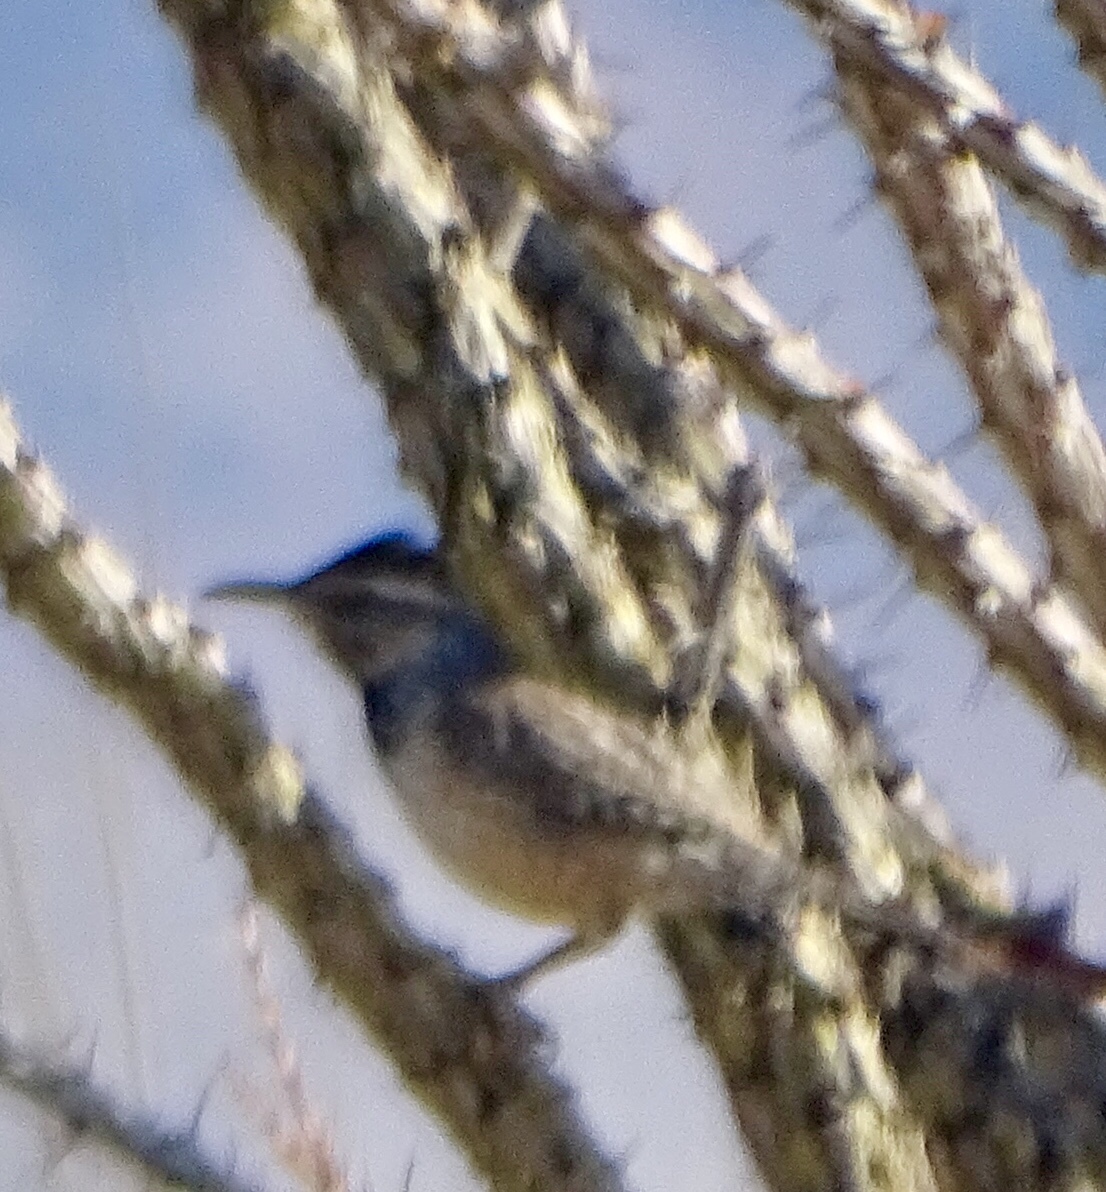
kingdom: Animalia
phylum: Chordata
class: Aves
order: Passeriformes
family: Troglodytidae
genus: Campylorhynchus
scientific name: Campylorhynchus brunneicapillus
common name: Cactus wren
